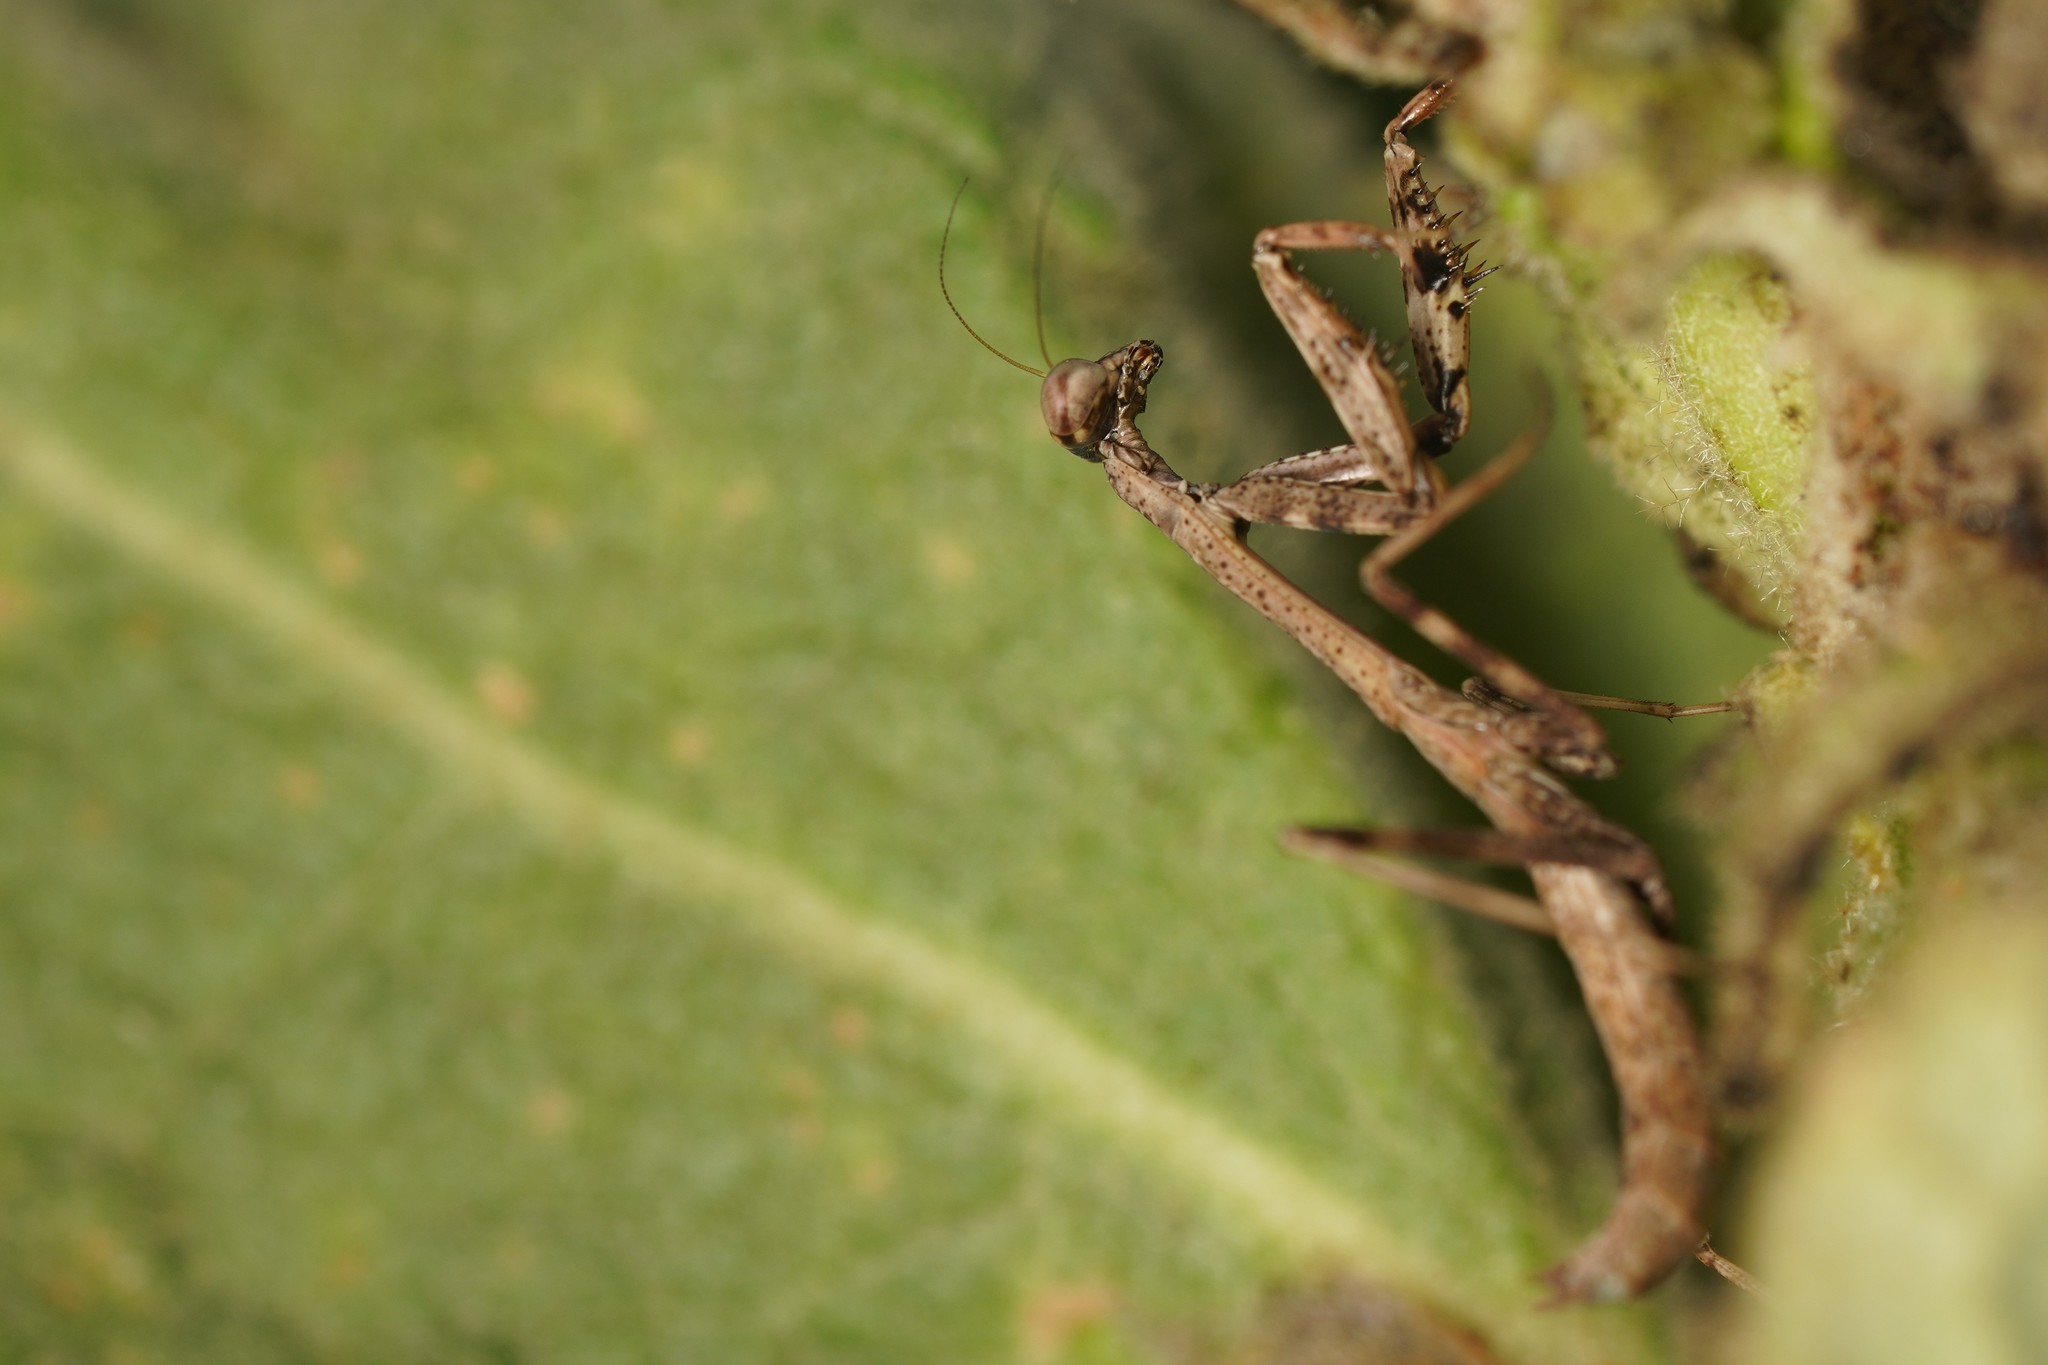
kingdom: Animalia
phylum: Arthropoda
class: Insecta
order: Mantodea
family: Mantidae
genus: Stagmomantis
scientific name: Stagmomantis carolina
